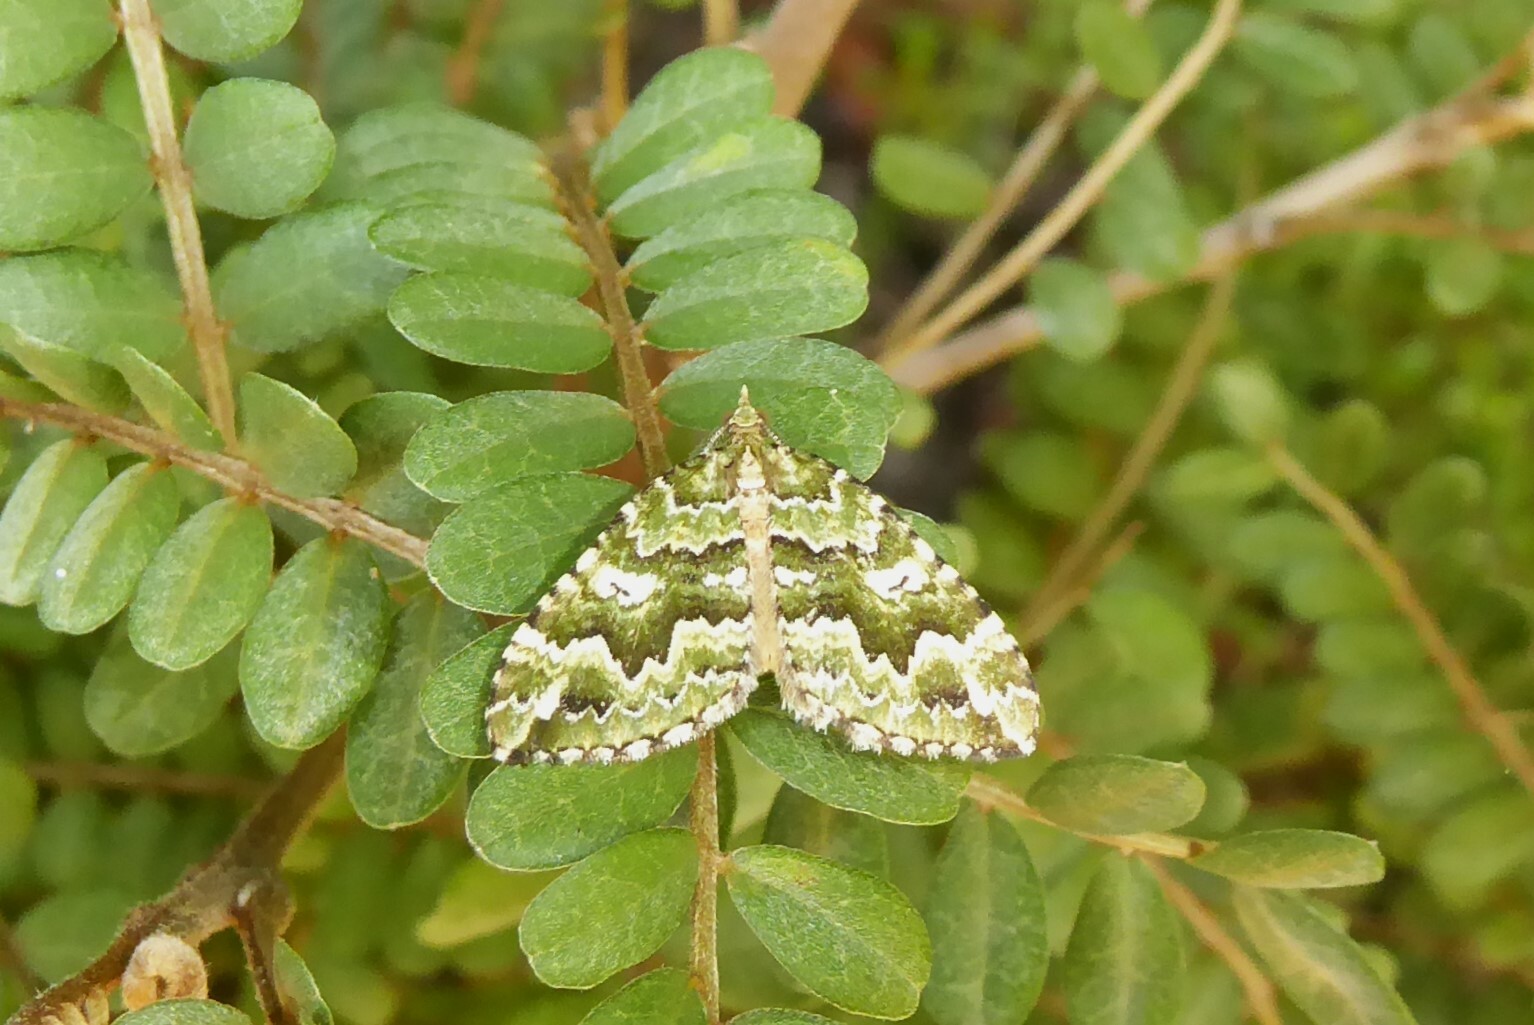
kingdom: Animalia
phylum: Arthropoda
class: Insecta
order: Lepidoptera
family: Geometridae
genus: Asaphodes
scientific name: Asaphodes beata
